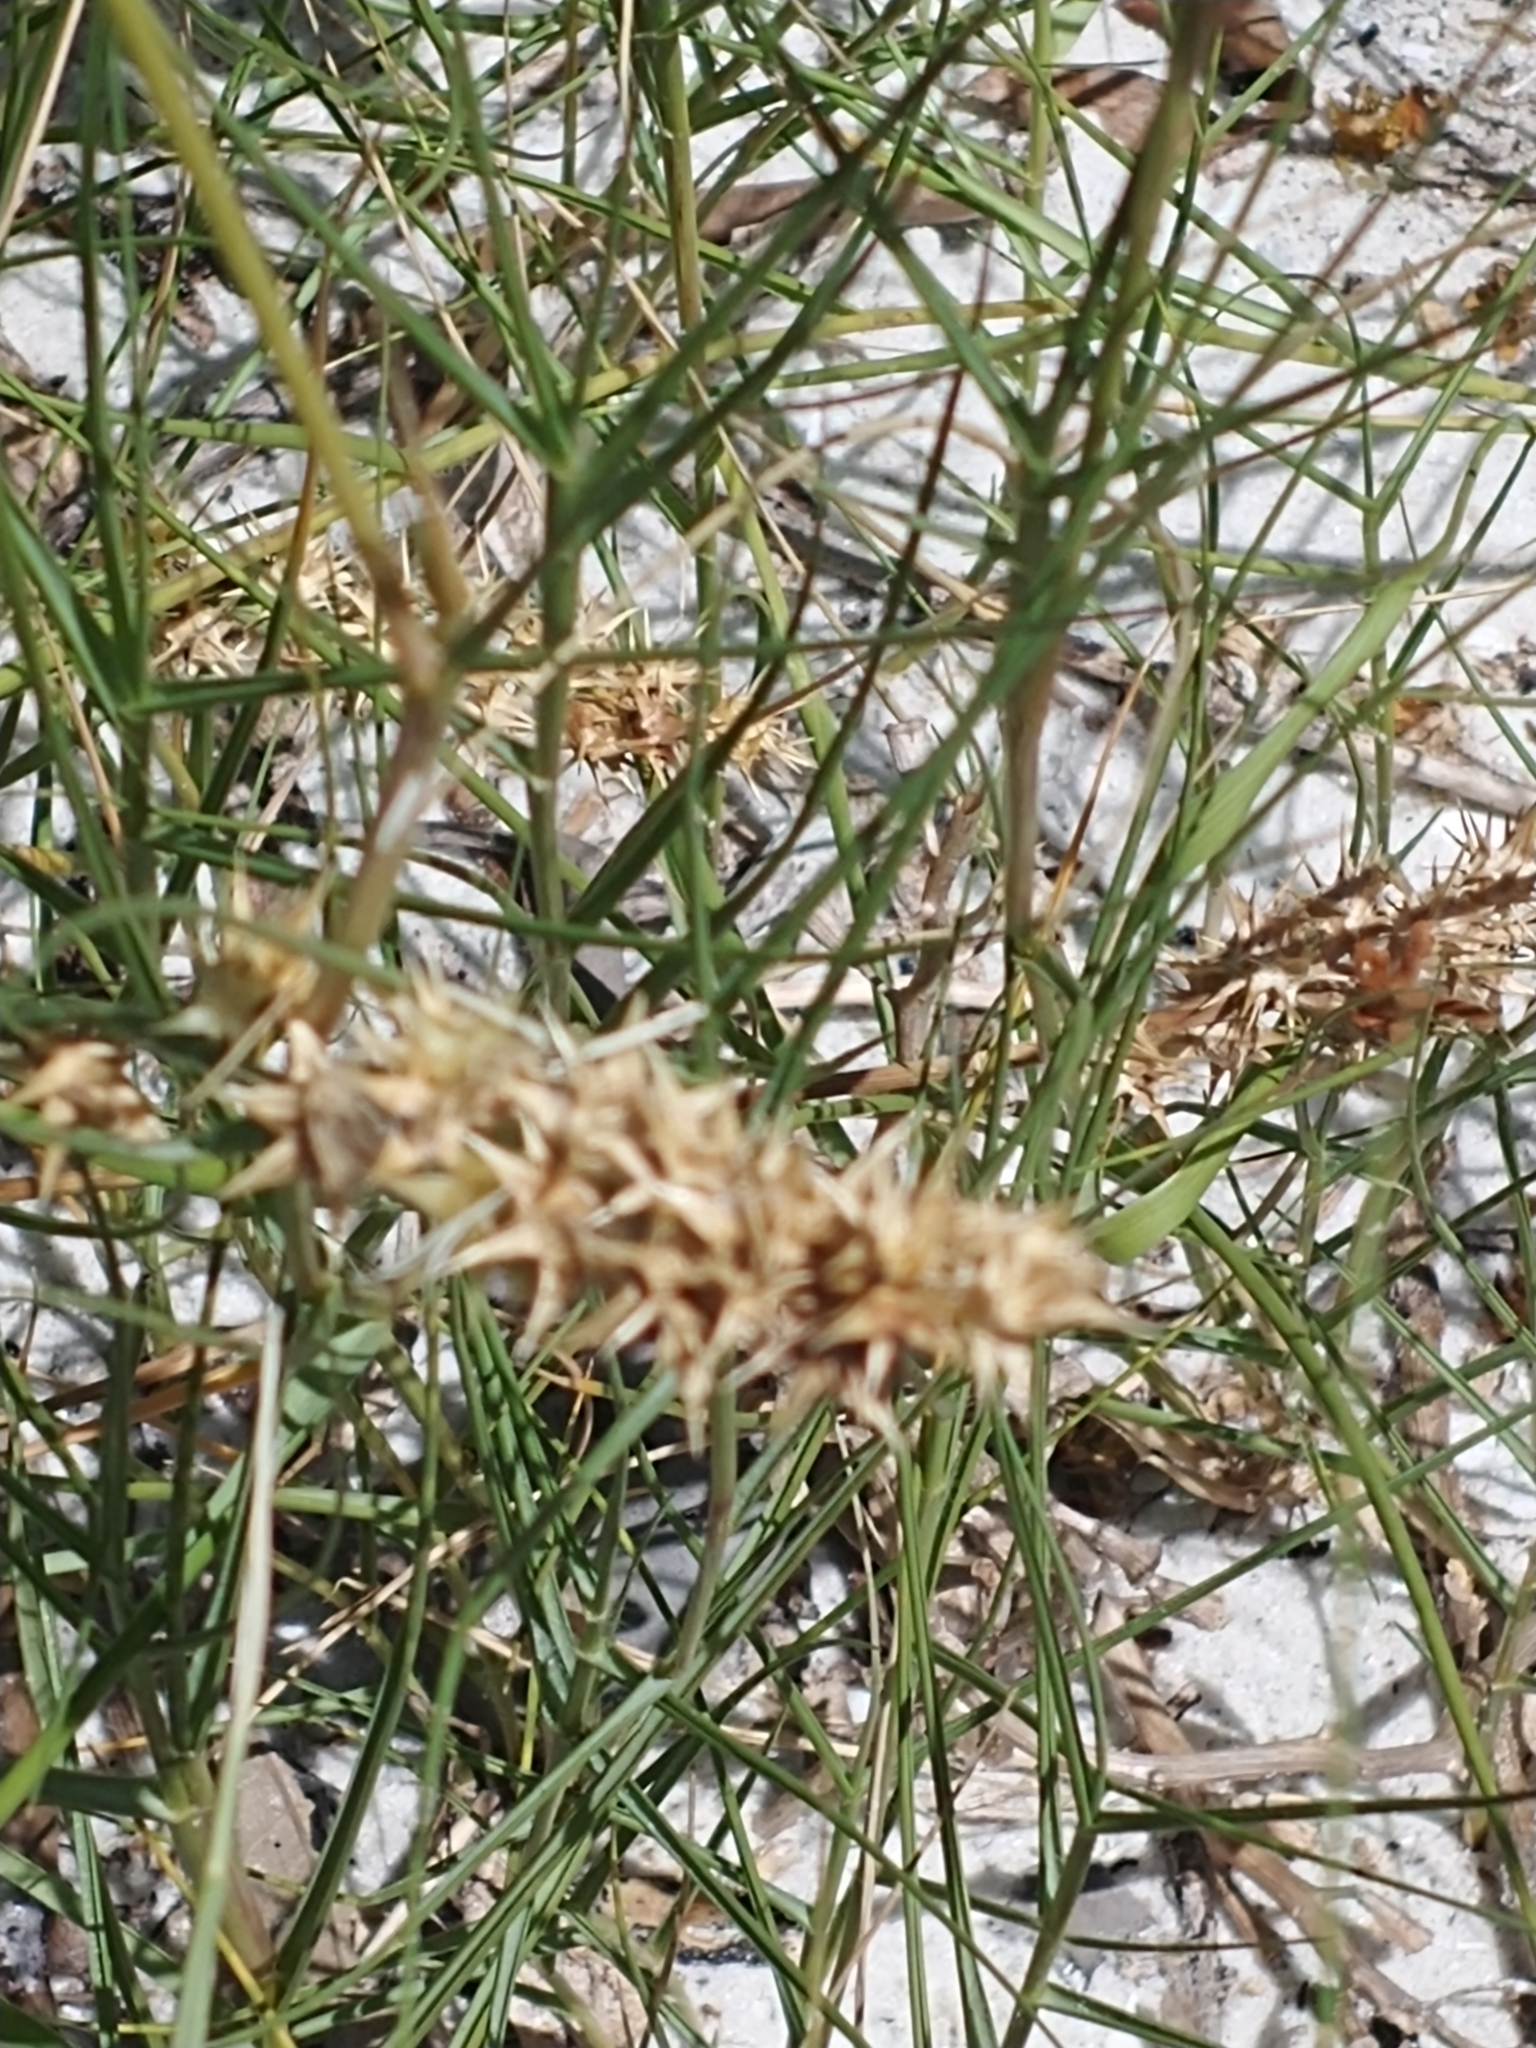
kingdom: Plantae
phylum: Tracheophyta
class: Liliopsida
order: Poales
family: Poaceae
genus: Cenchrus
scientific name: Cenchrus tribuloides
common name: Dune sandbur
